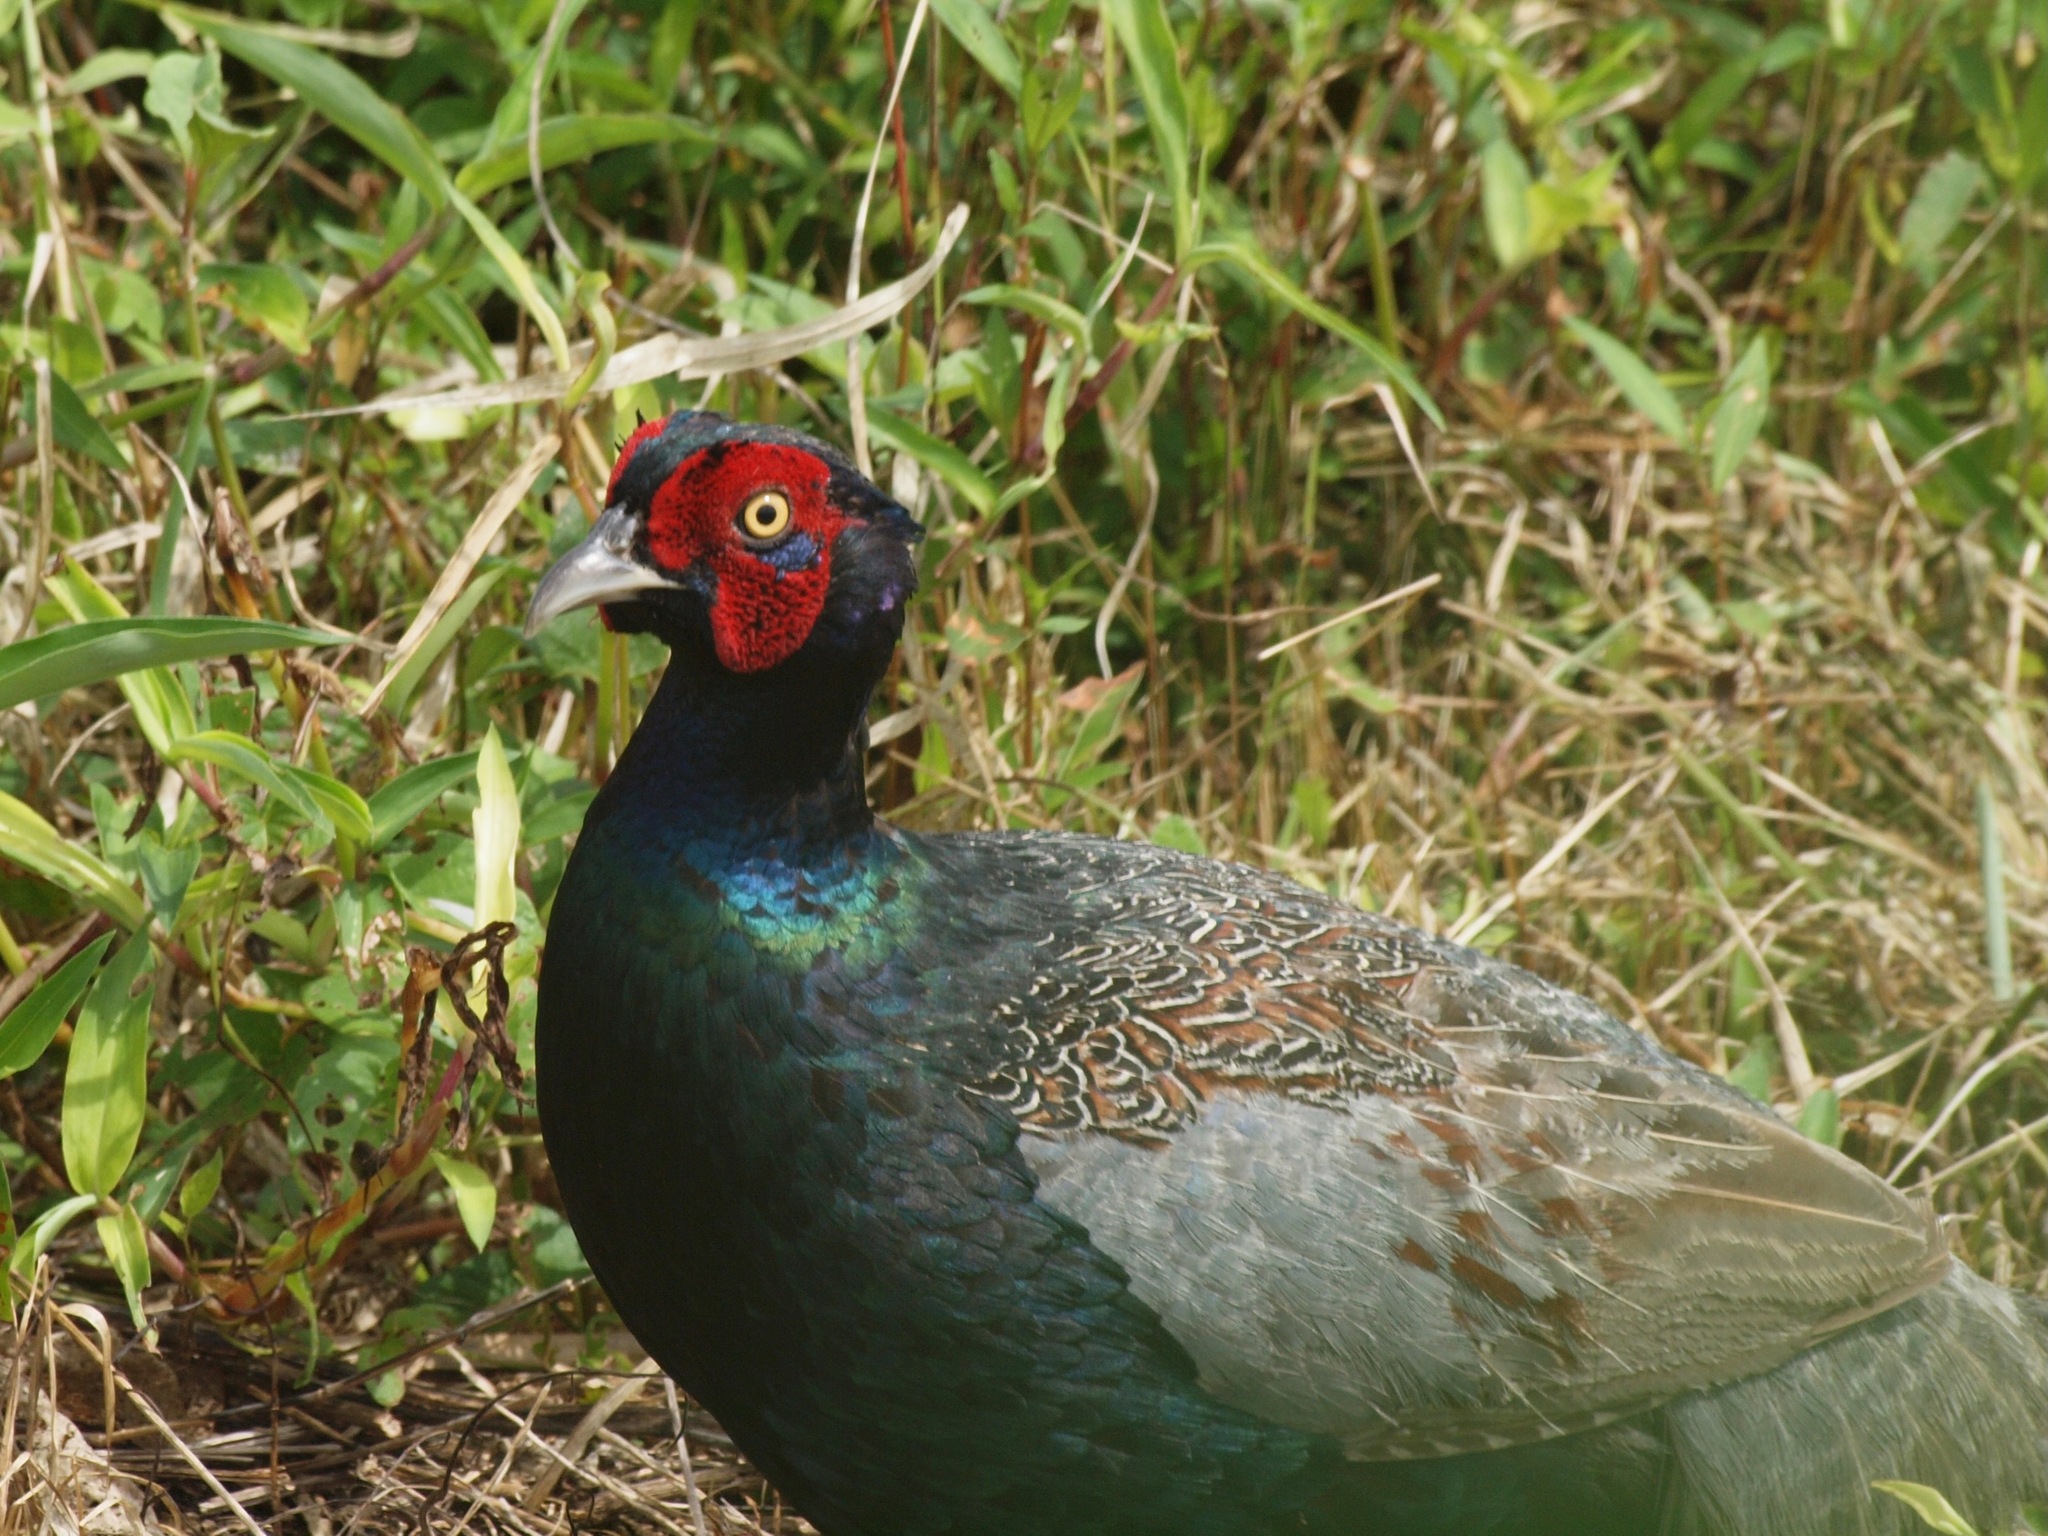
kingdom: Animalia
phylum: Chordata
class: Aves
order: Galliformes
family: Phasianidae
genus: Phasianus
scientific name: Phasianus versicolor
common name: Green pheasant
